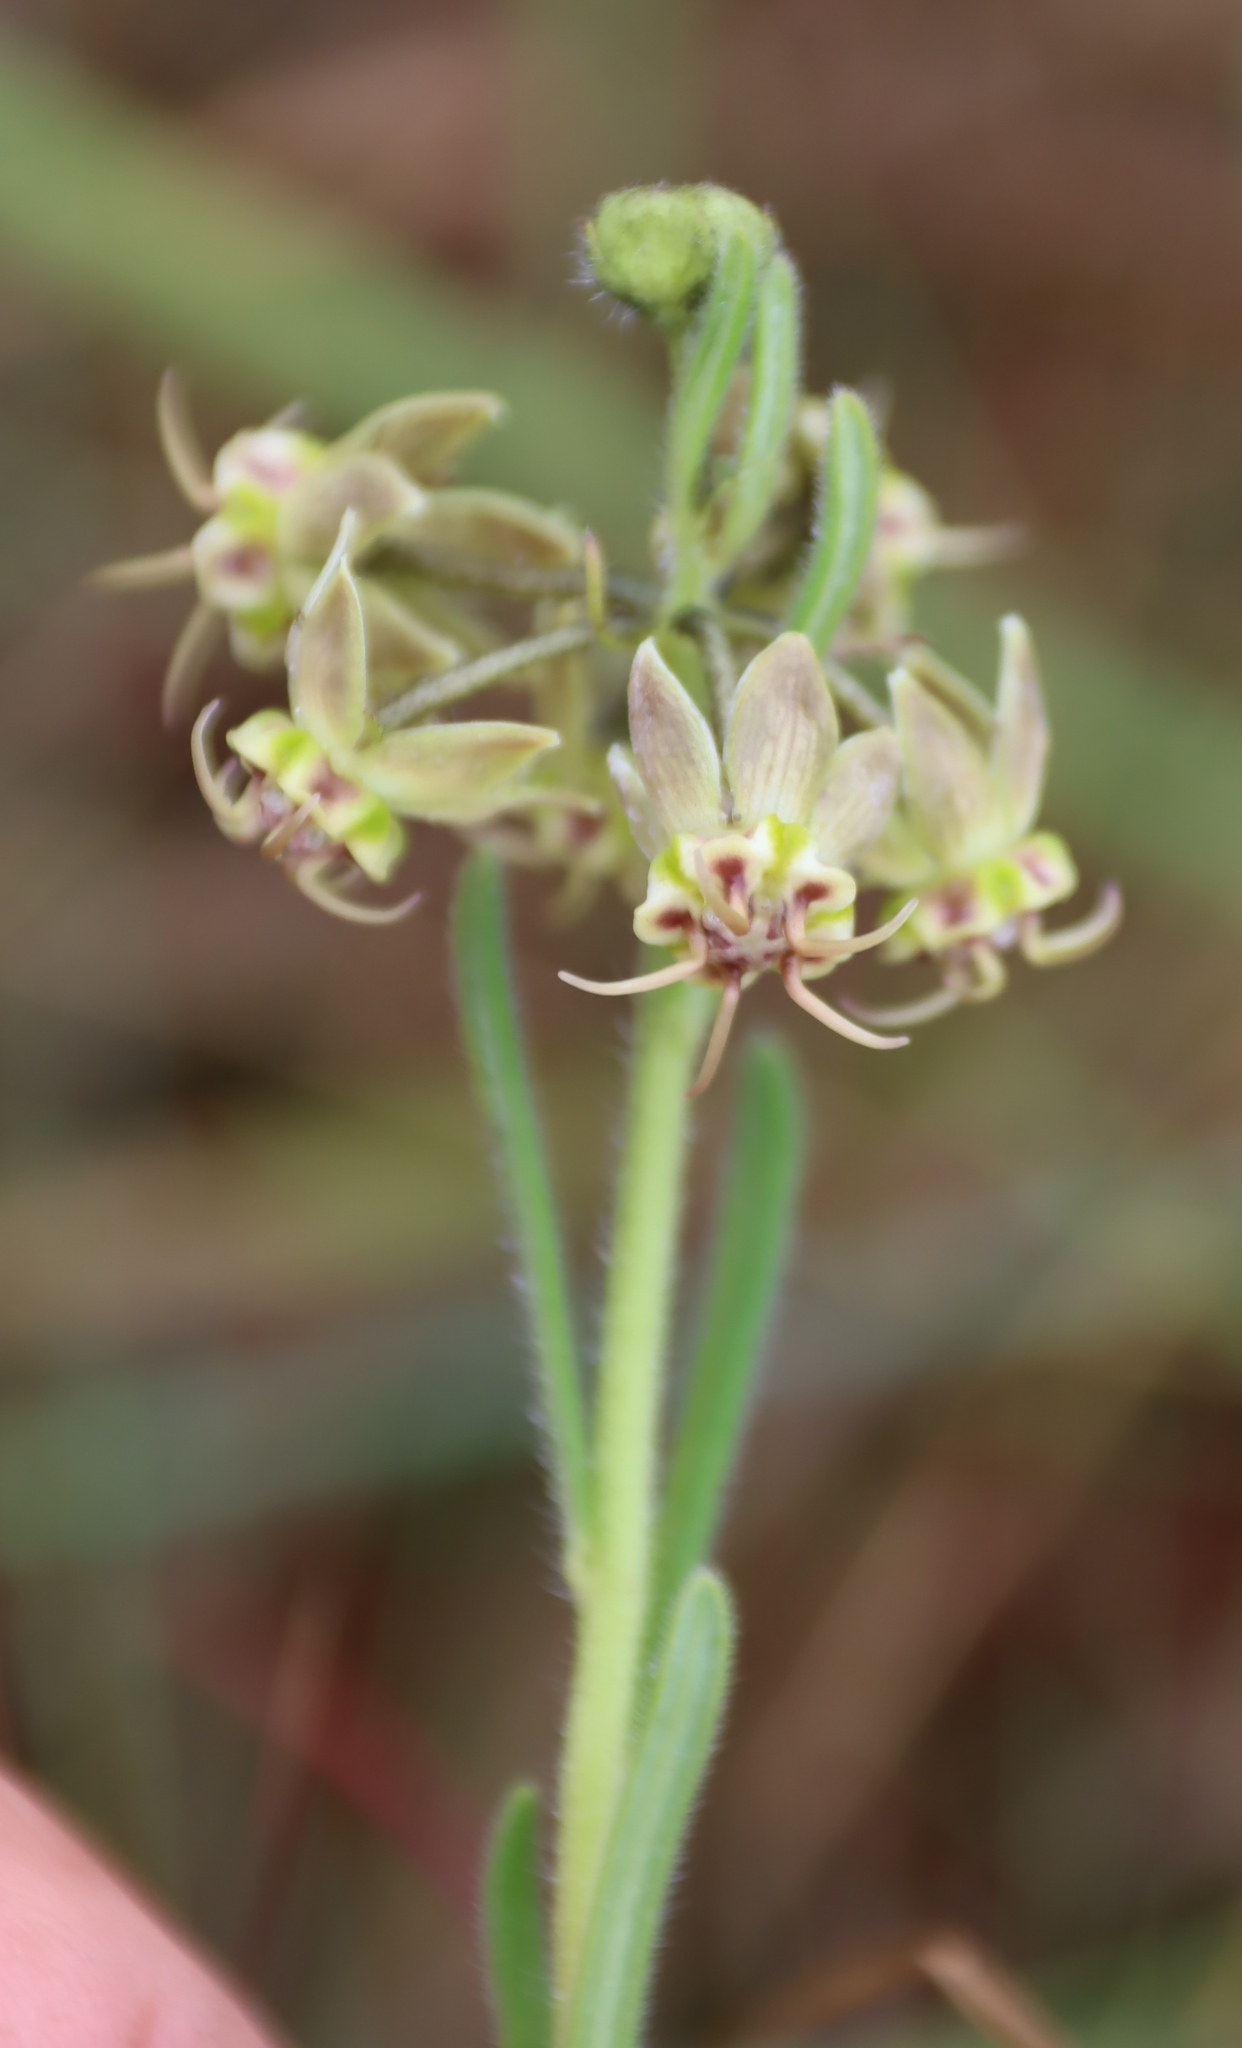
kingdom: Plantae
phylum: Tracheophyta
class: Magnoliopsida
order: Gentianales
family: Apocynaceae
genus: Miraglossum
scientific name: Miraglossum pulchellum
